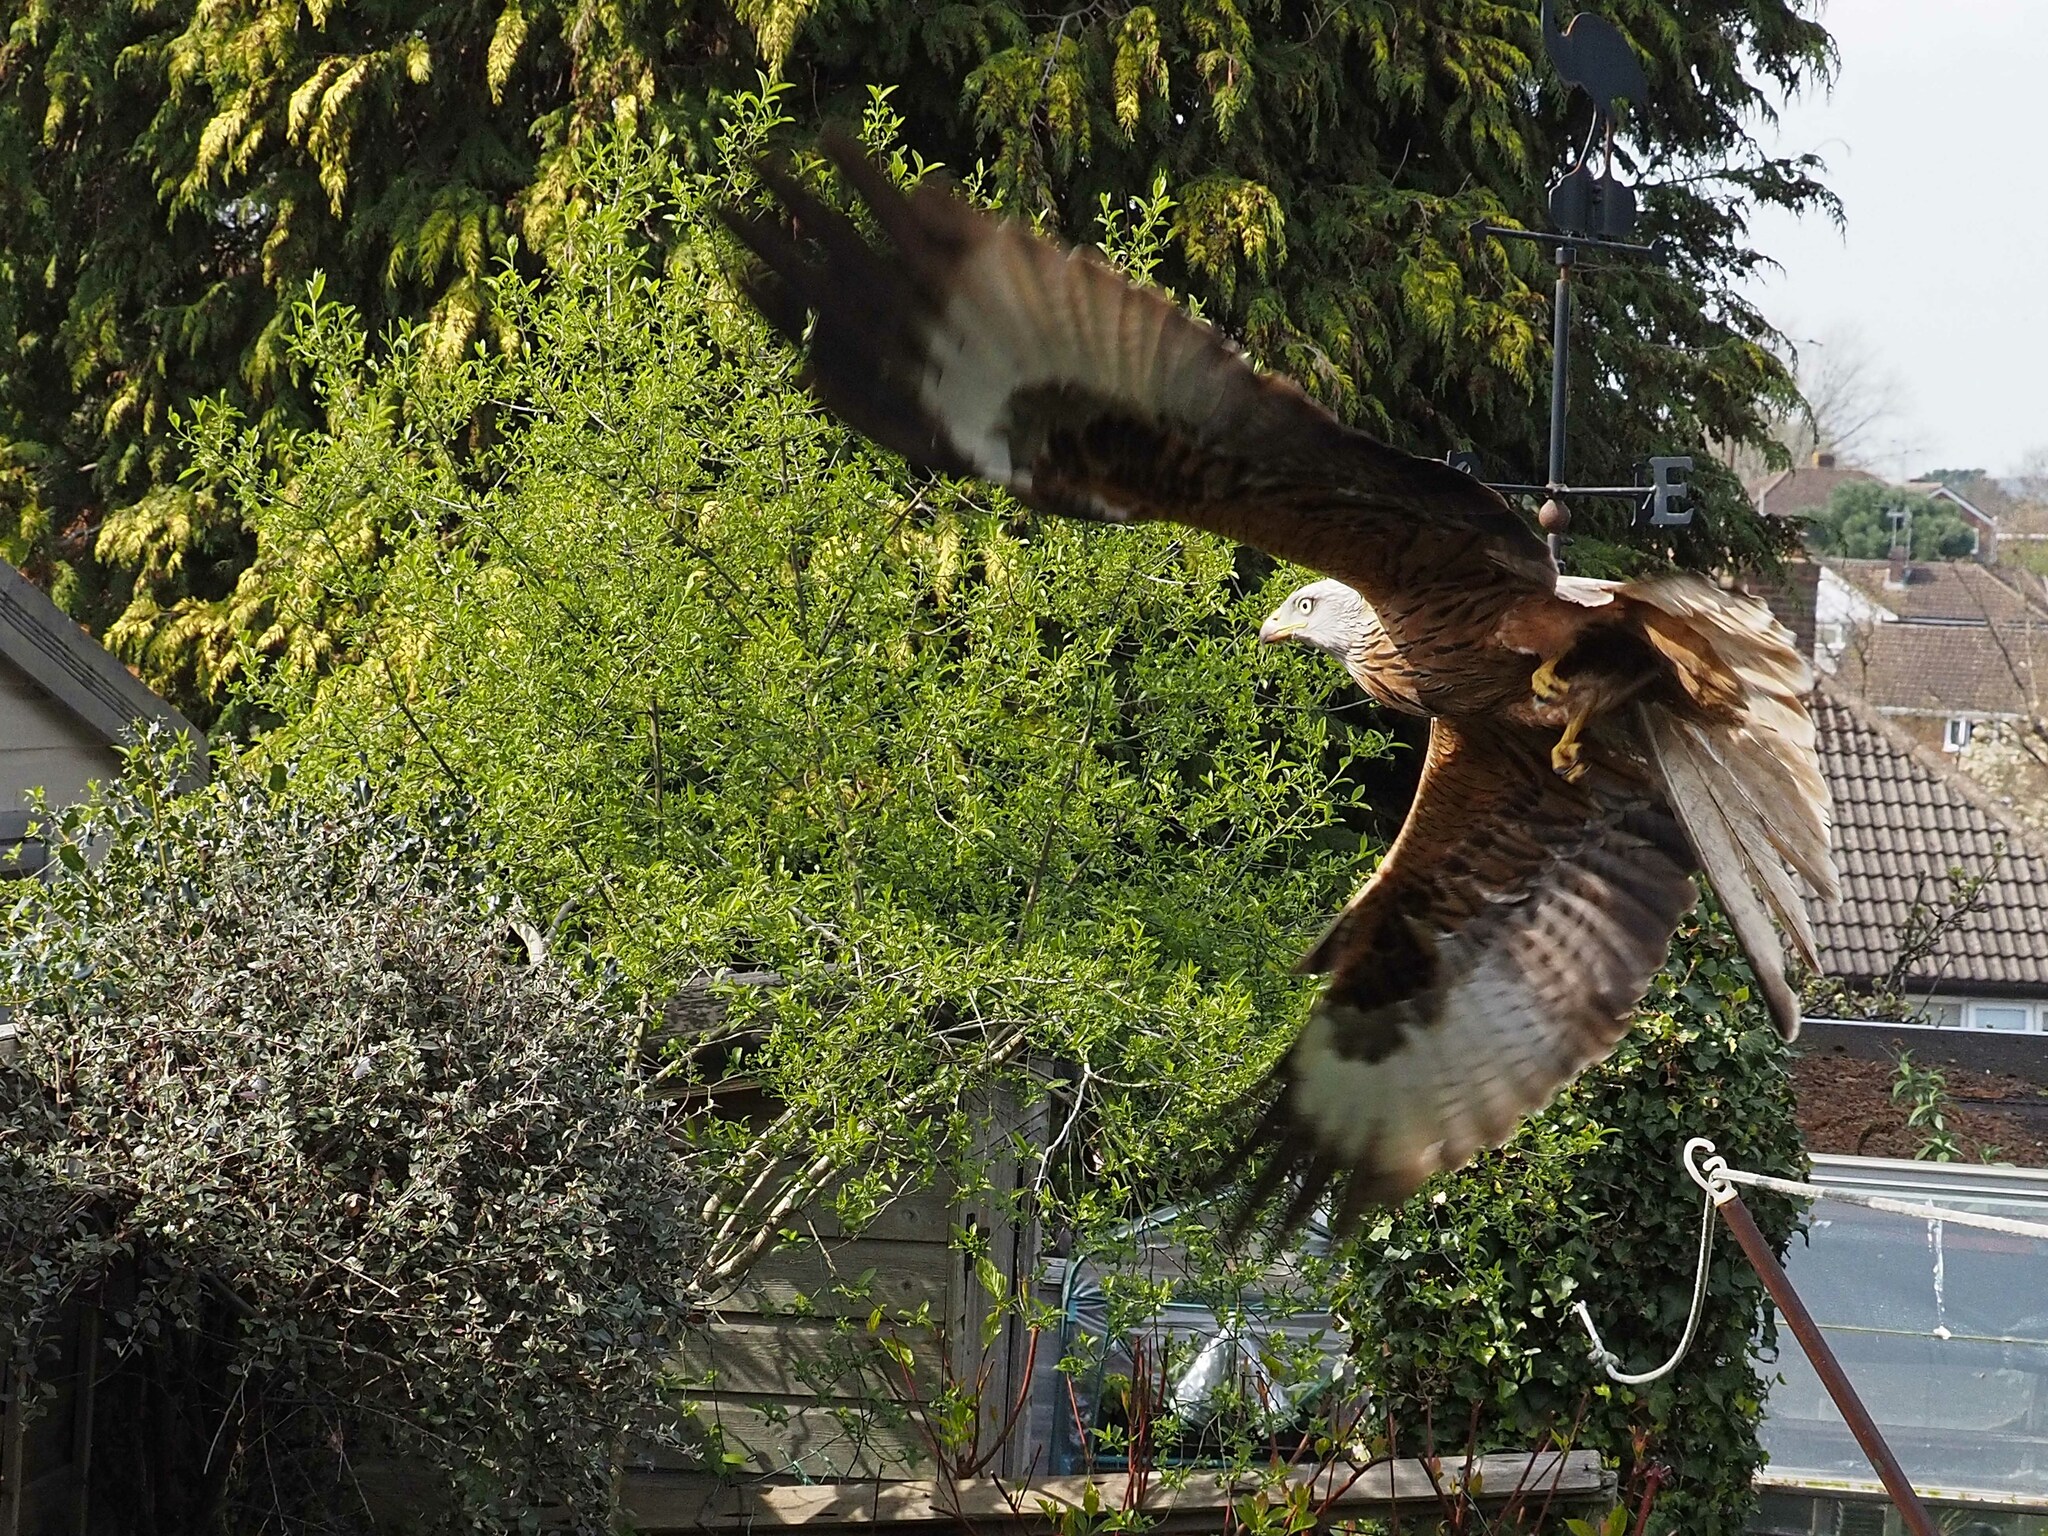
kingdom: Animalia
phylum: Chordata
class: Aves
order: Accipitriformes
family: Accipitridae
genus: Milvus
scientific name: Milvus milvus
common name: Red kite
